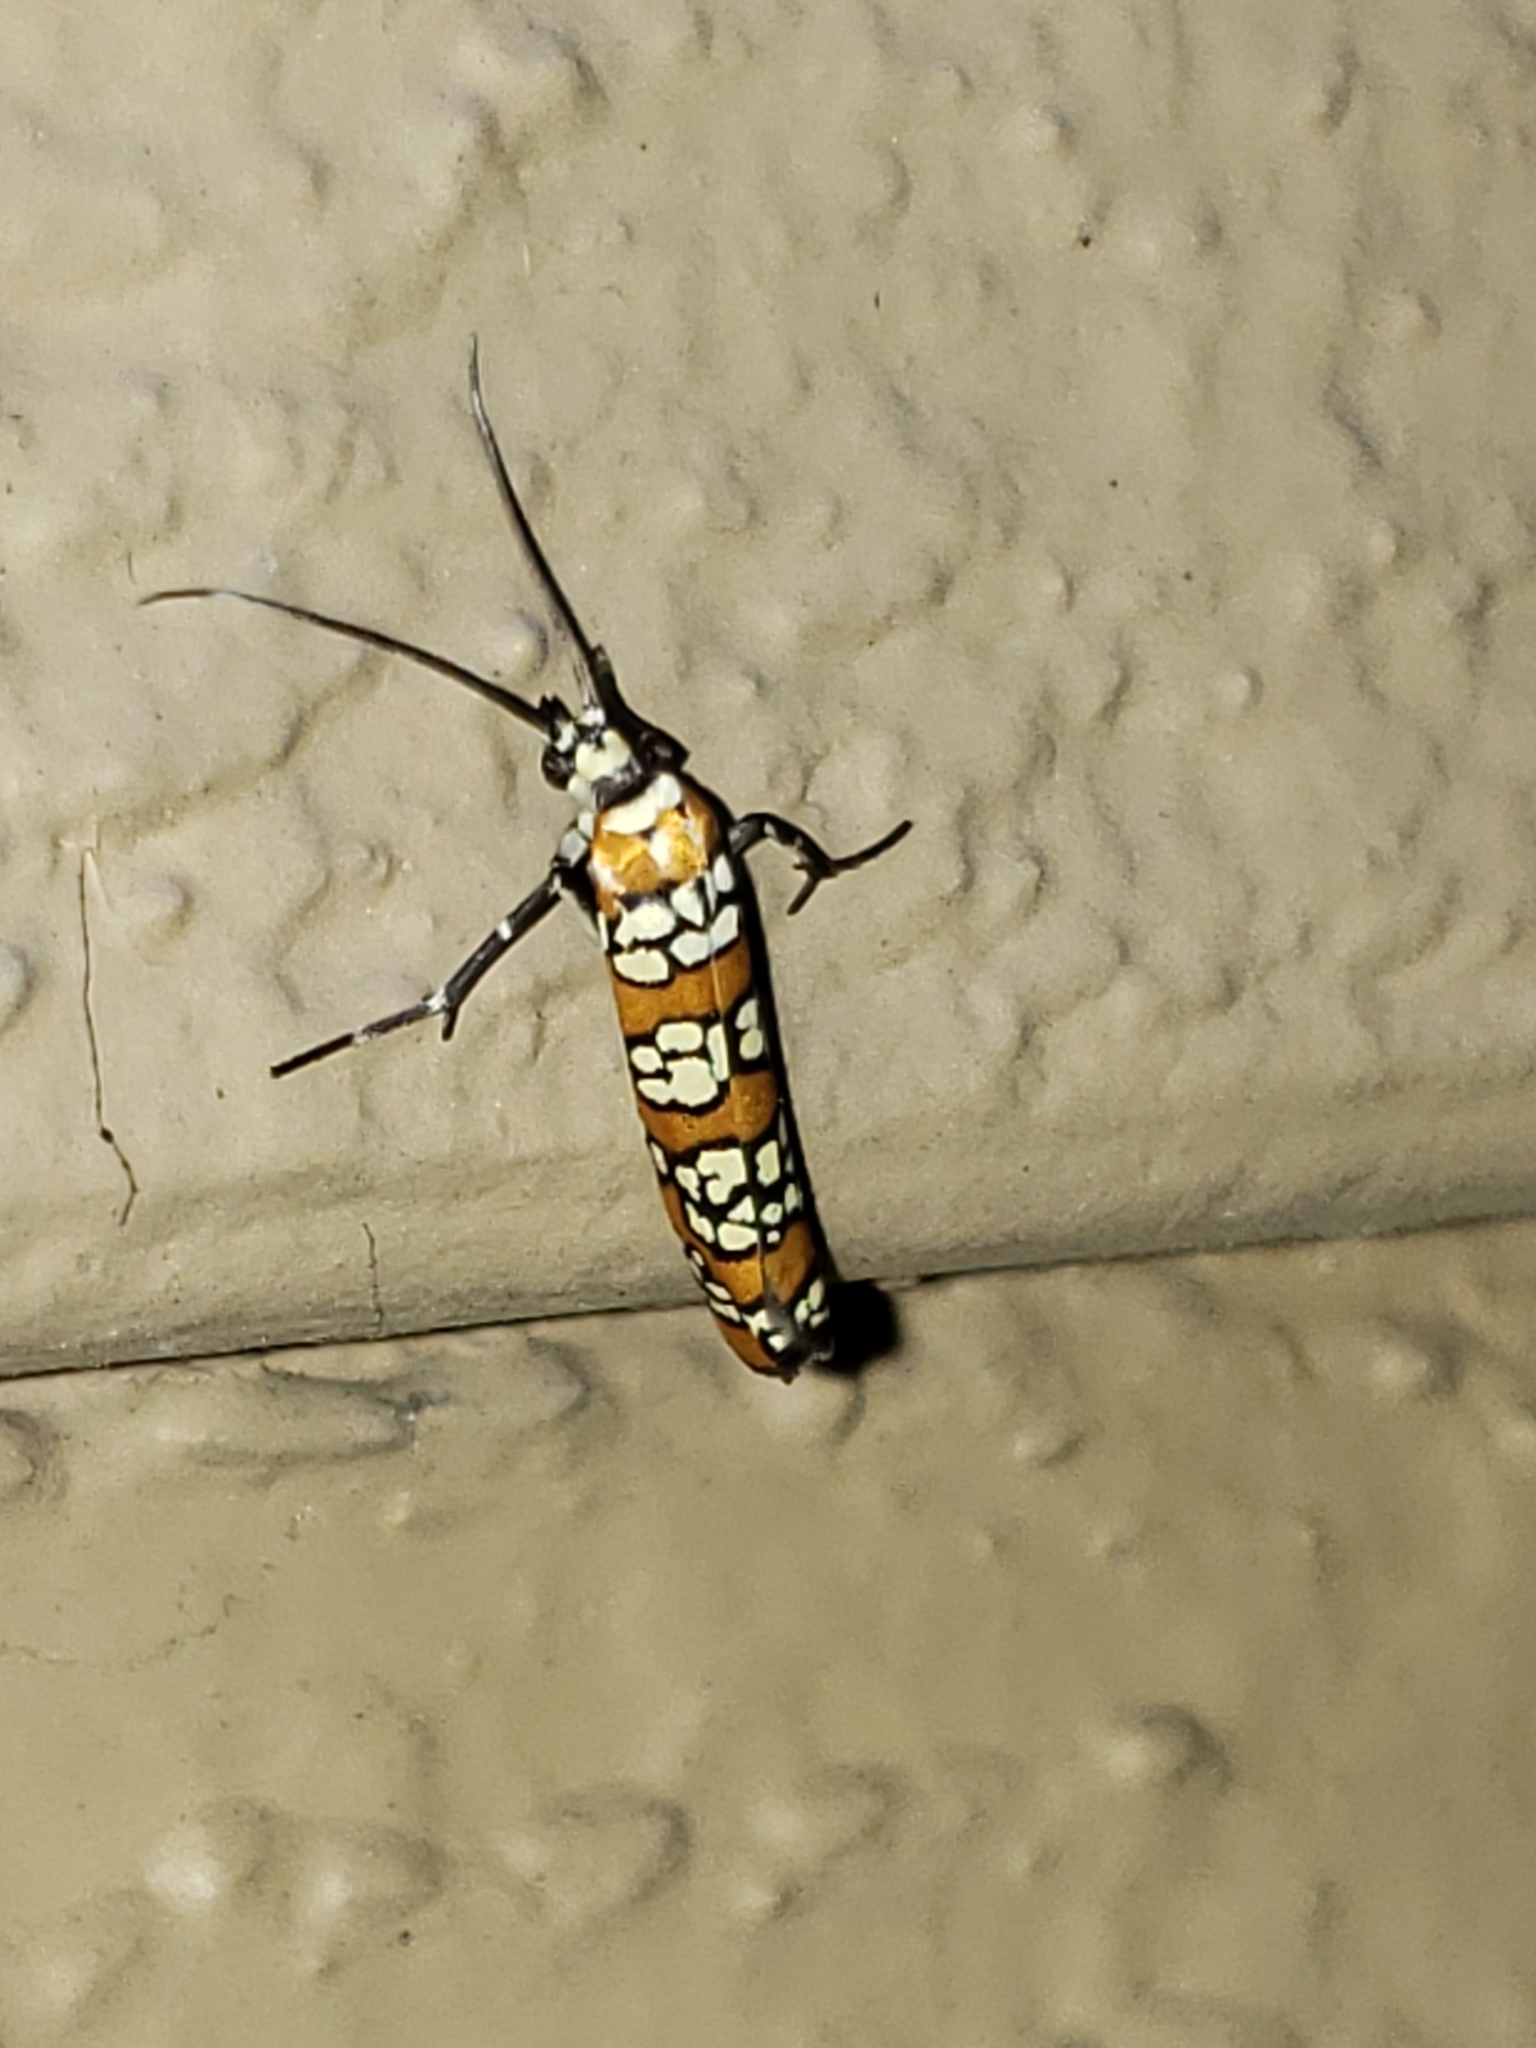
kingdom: Animalia
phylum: Arthropoda
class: Insecta
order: Lepidoptera
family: Attevidae
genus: Atteva
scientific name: Atteva punctella
